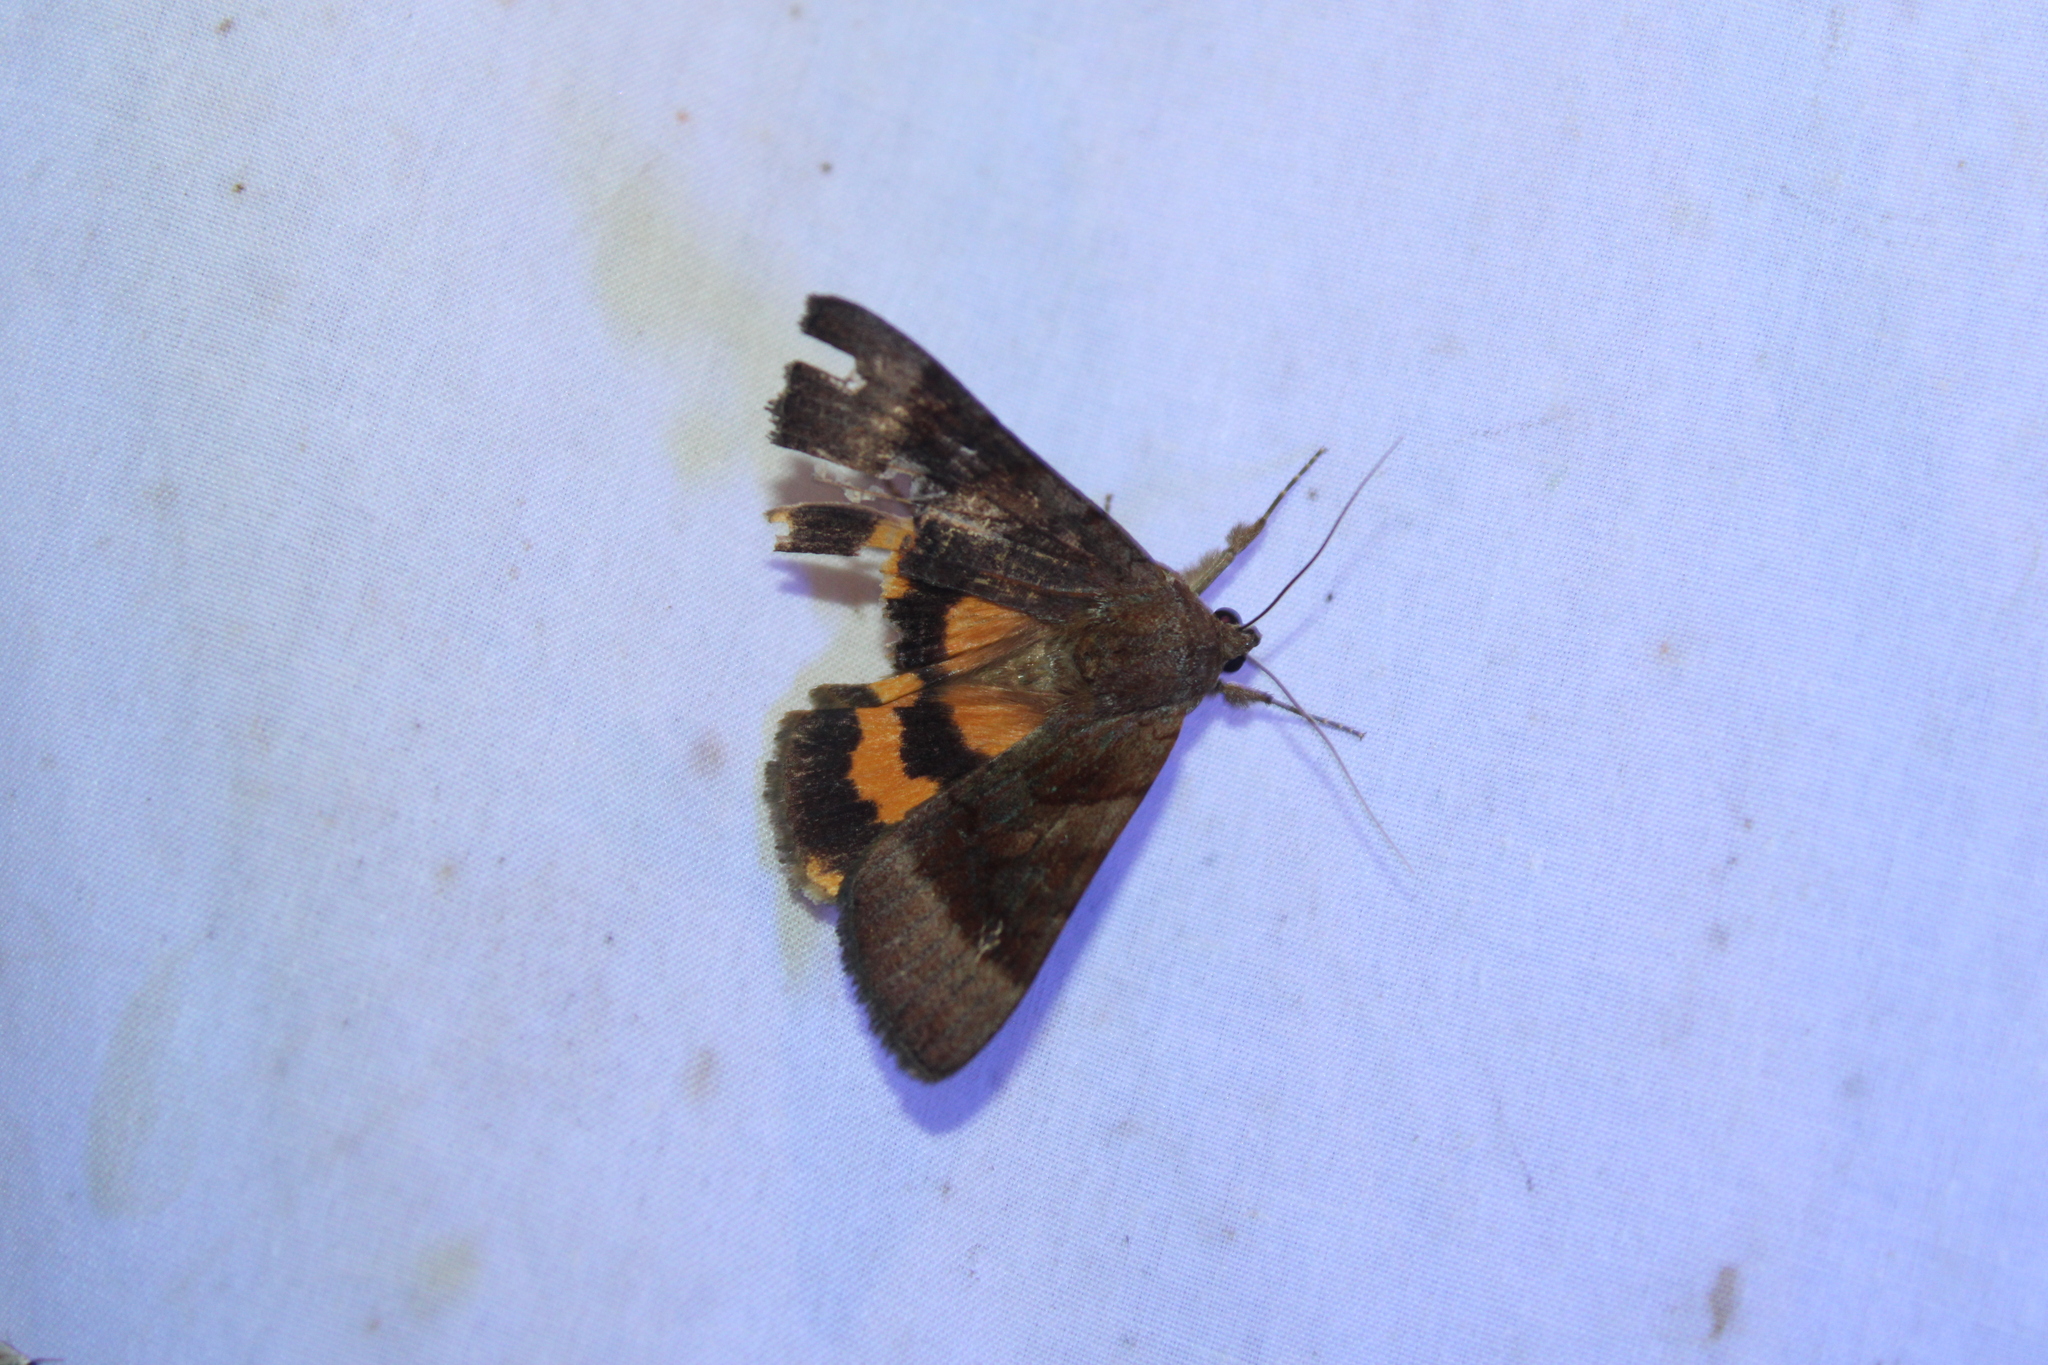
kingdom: Animalia
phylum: Arthropoda
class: Insecta
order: Lepidoptera
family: Erebidae
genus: Catocala
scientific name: Catocala badia
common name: Bay underwing
